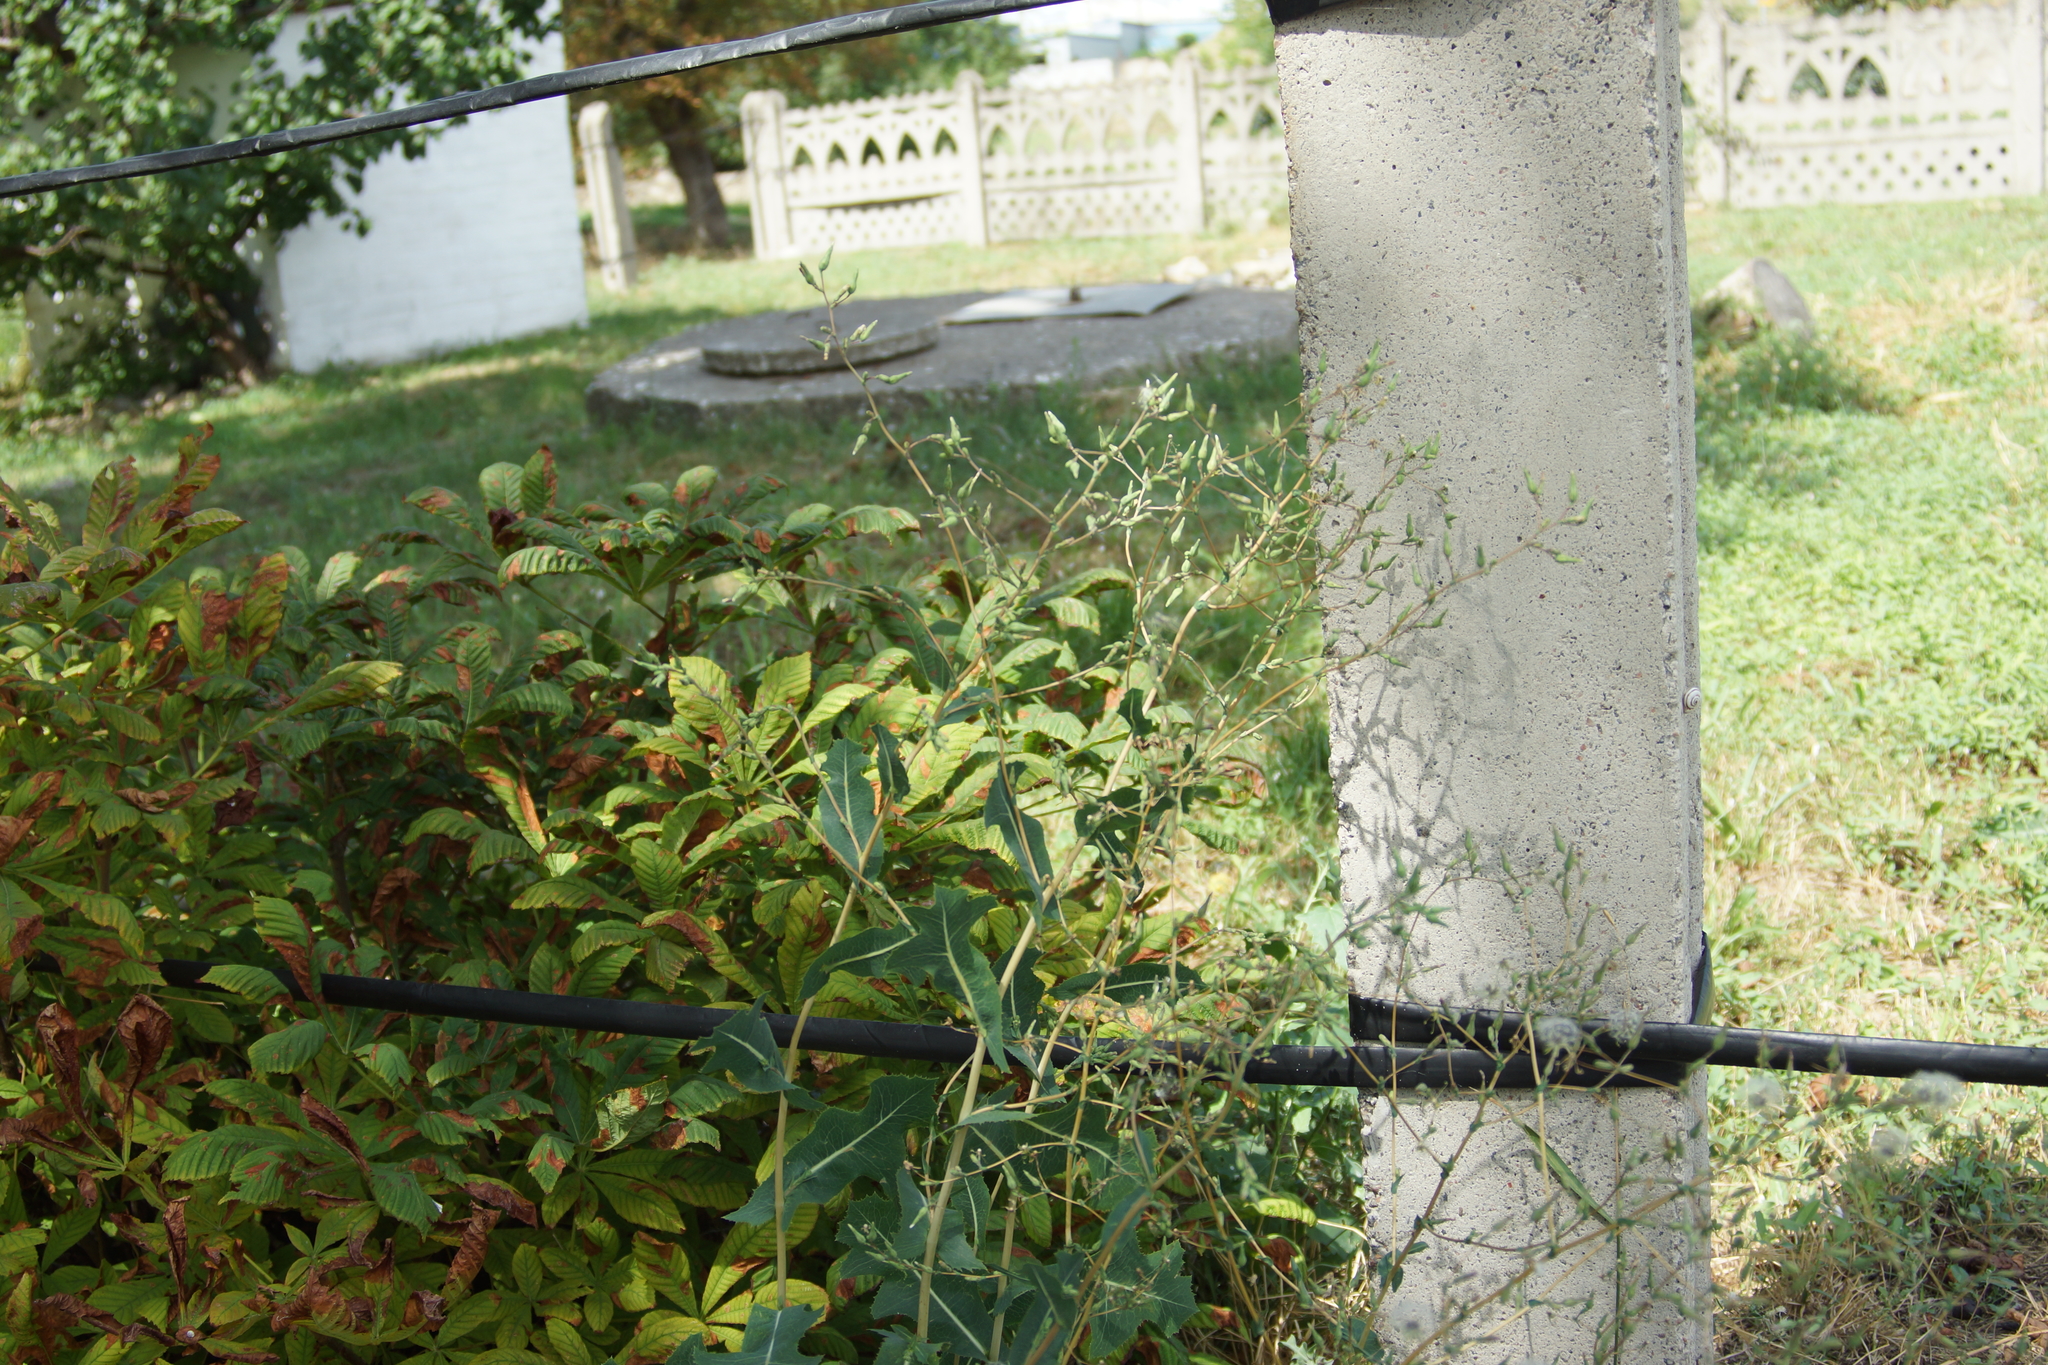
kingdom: Plantae
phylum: Tracheophyta
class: Magnoliopsida
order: Asterales
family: Asteraceae
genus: Lactuca
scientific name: Lactuca serriola
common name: Prickly lettuce
